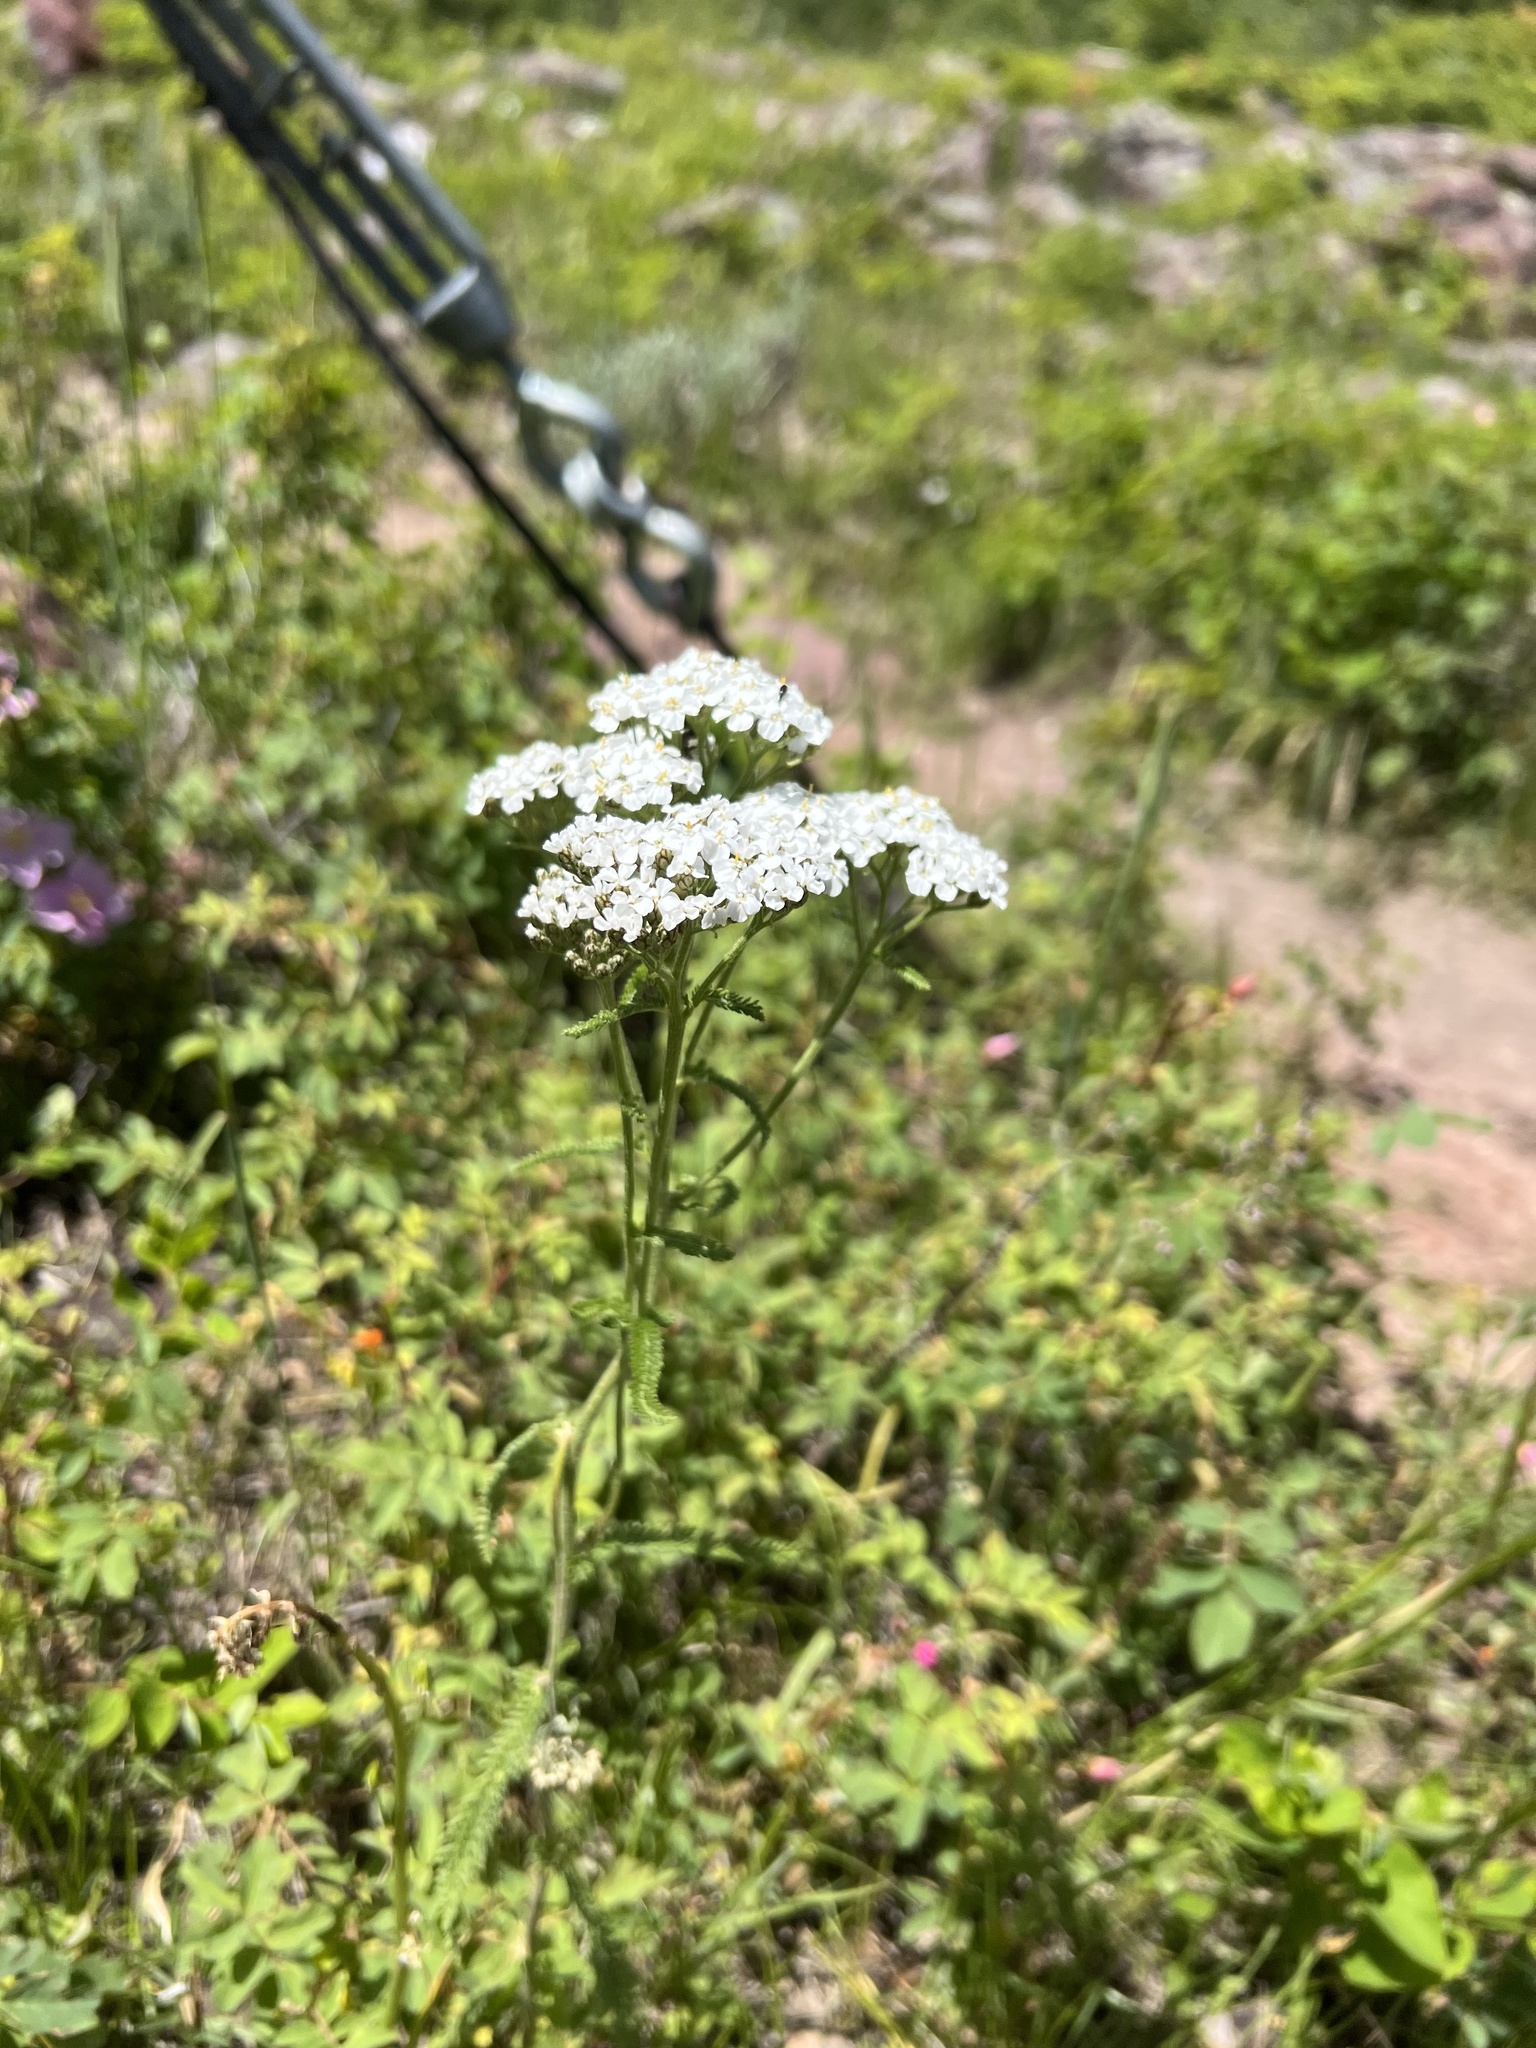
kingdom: Plantae
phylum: Tracheophyta
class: Magnoliopsida
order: Asterales
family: Asteraceae
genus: Achillea
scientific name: Achillea millefolium
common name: Yarrow
